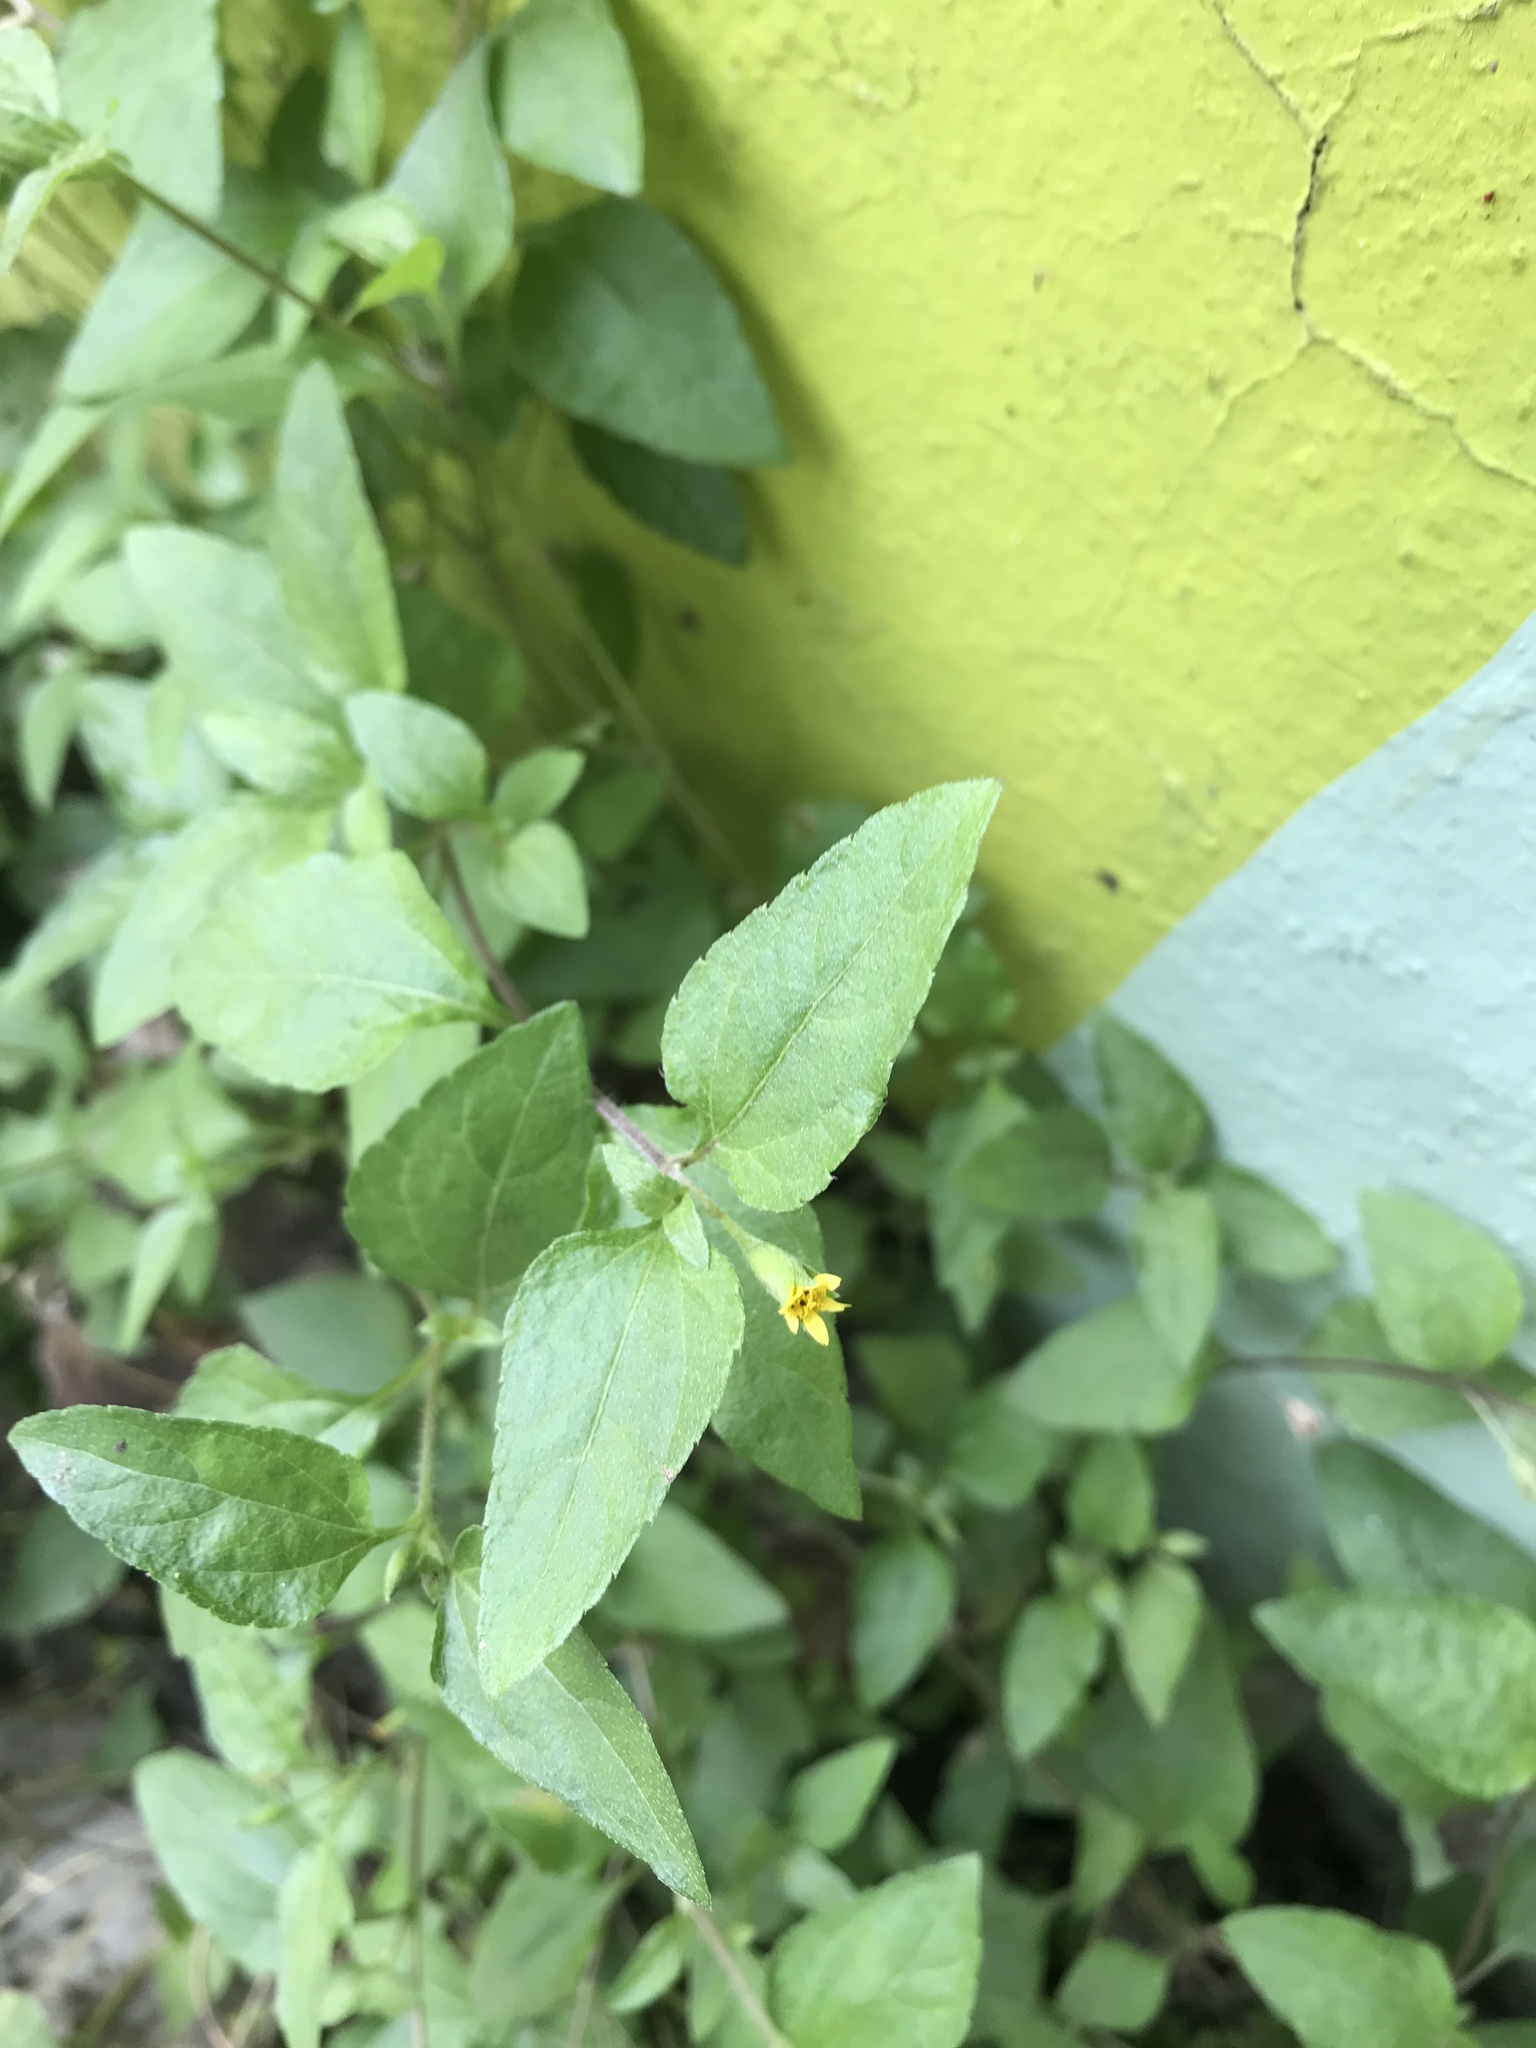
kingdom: Plantae
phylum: Tracheophyta
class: Magnoliopsida
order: Asterales
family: Asteraceae
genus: Calyptocarpus
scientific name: Calyptocarpus vialis
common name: Straggler daisy
